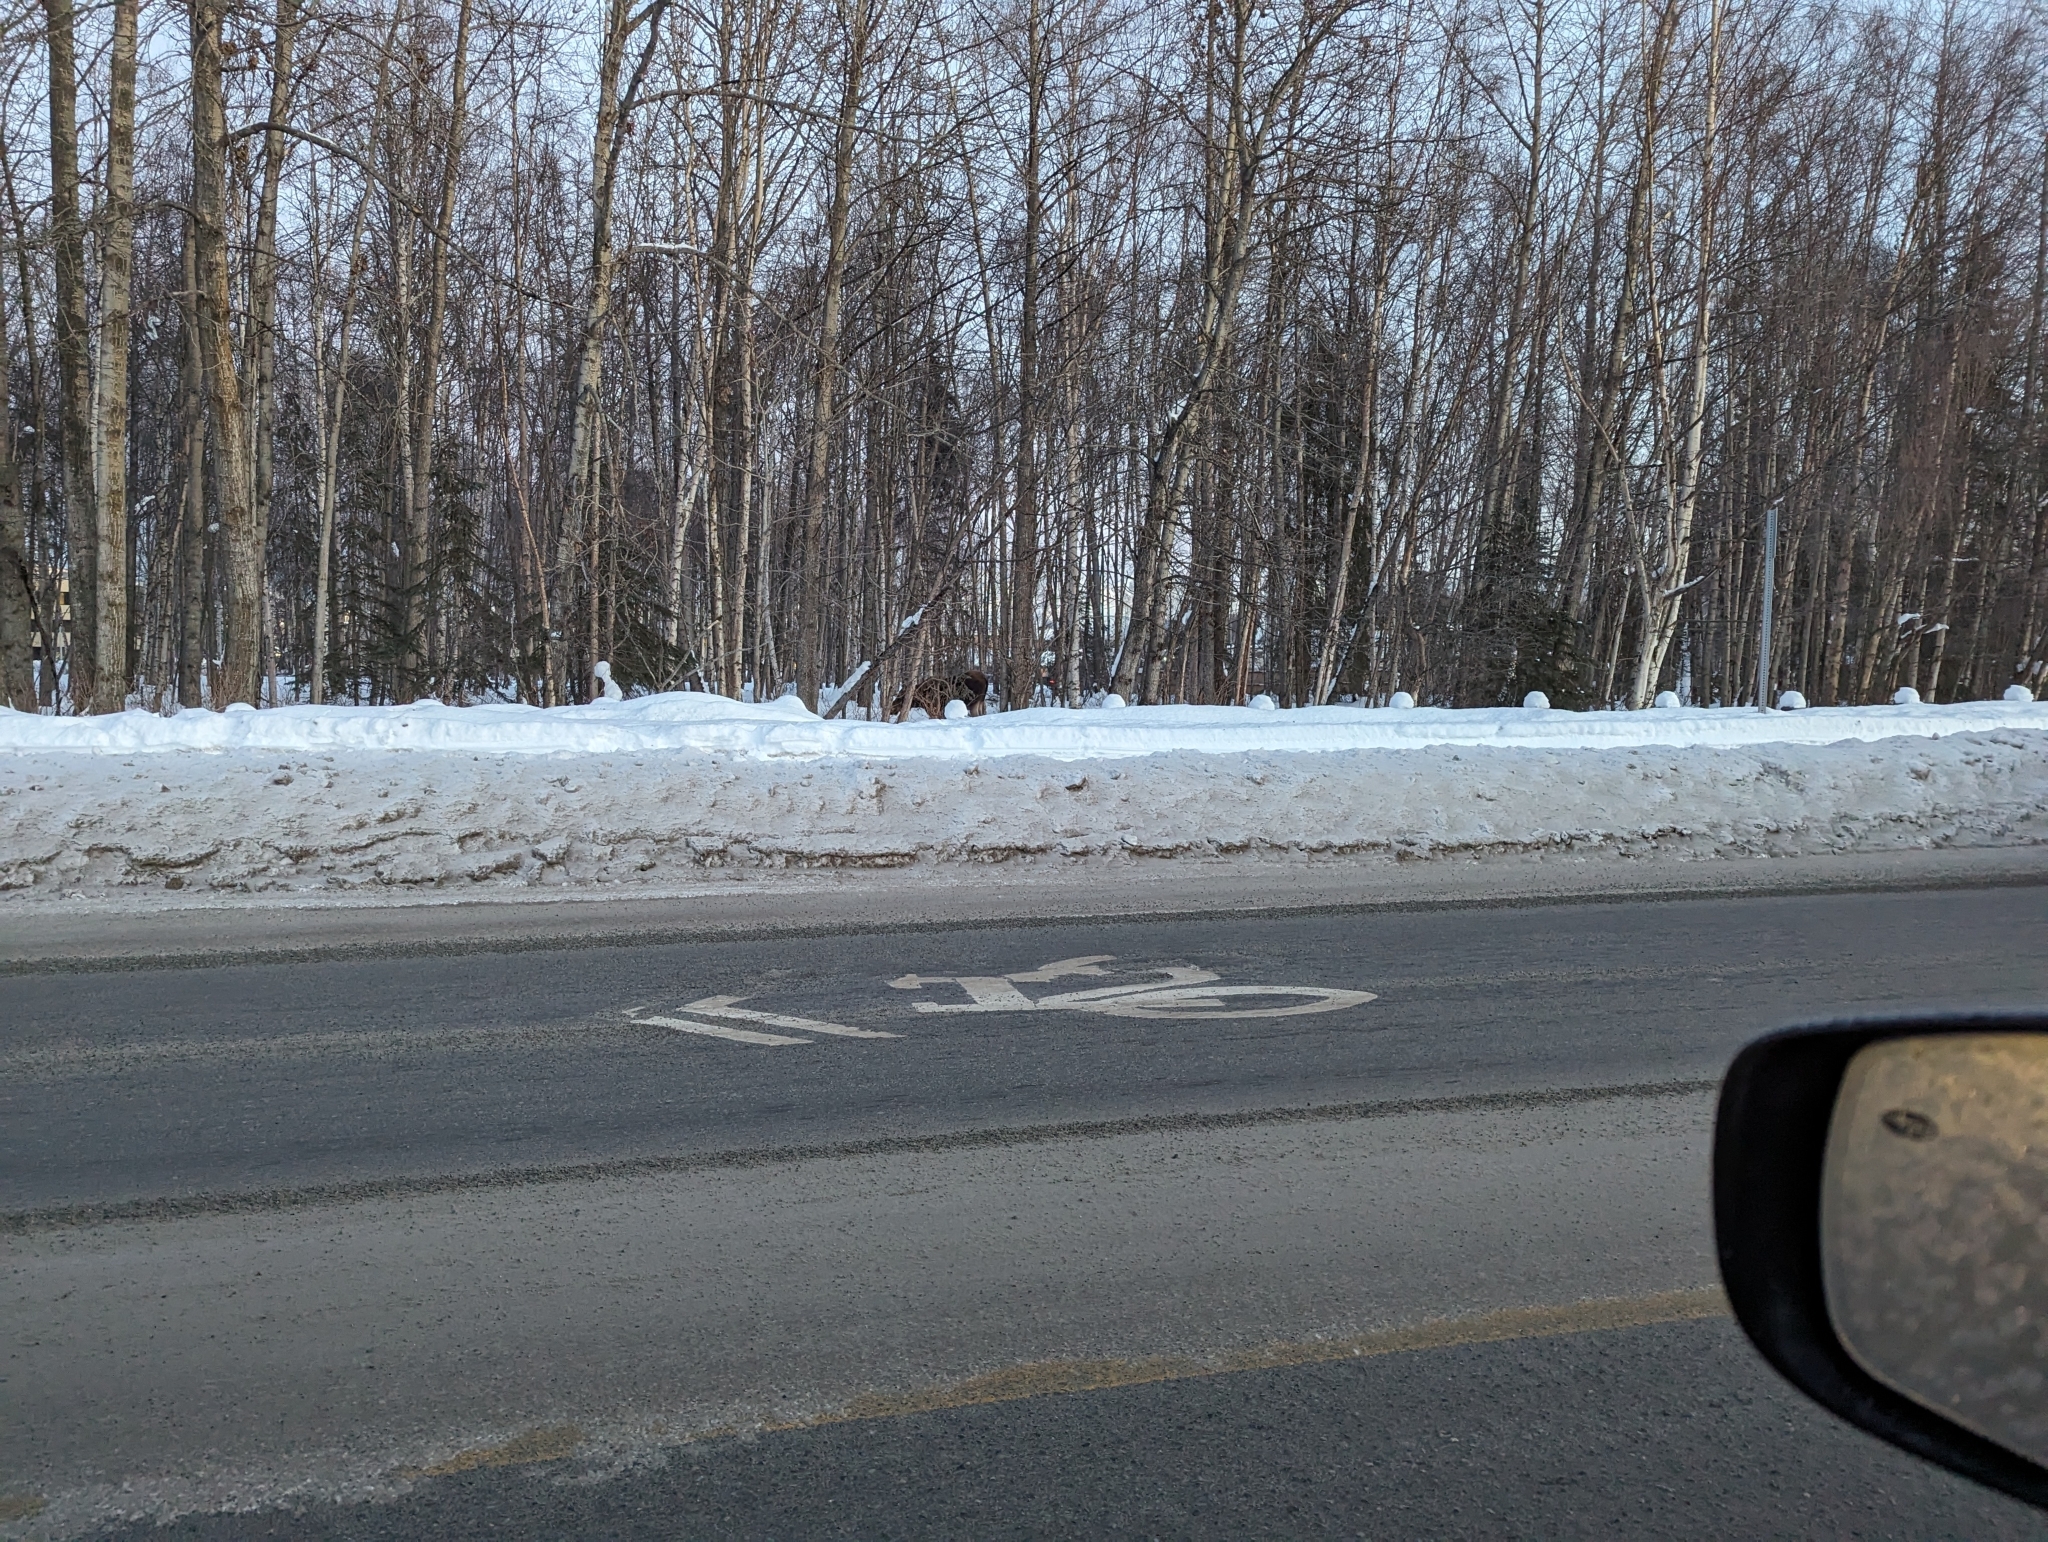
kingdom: Animalia
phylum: Chordata
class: Mammalia
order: Artiodactyla
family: Cervidae
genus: Alces
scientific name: Alces alces
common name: Moose
